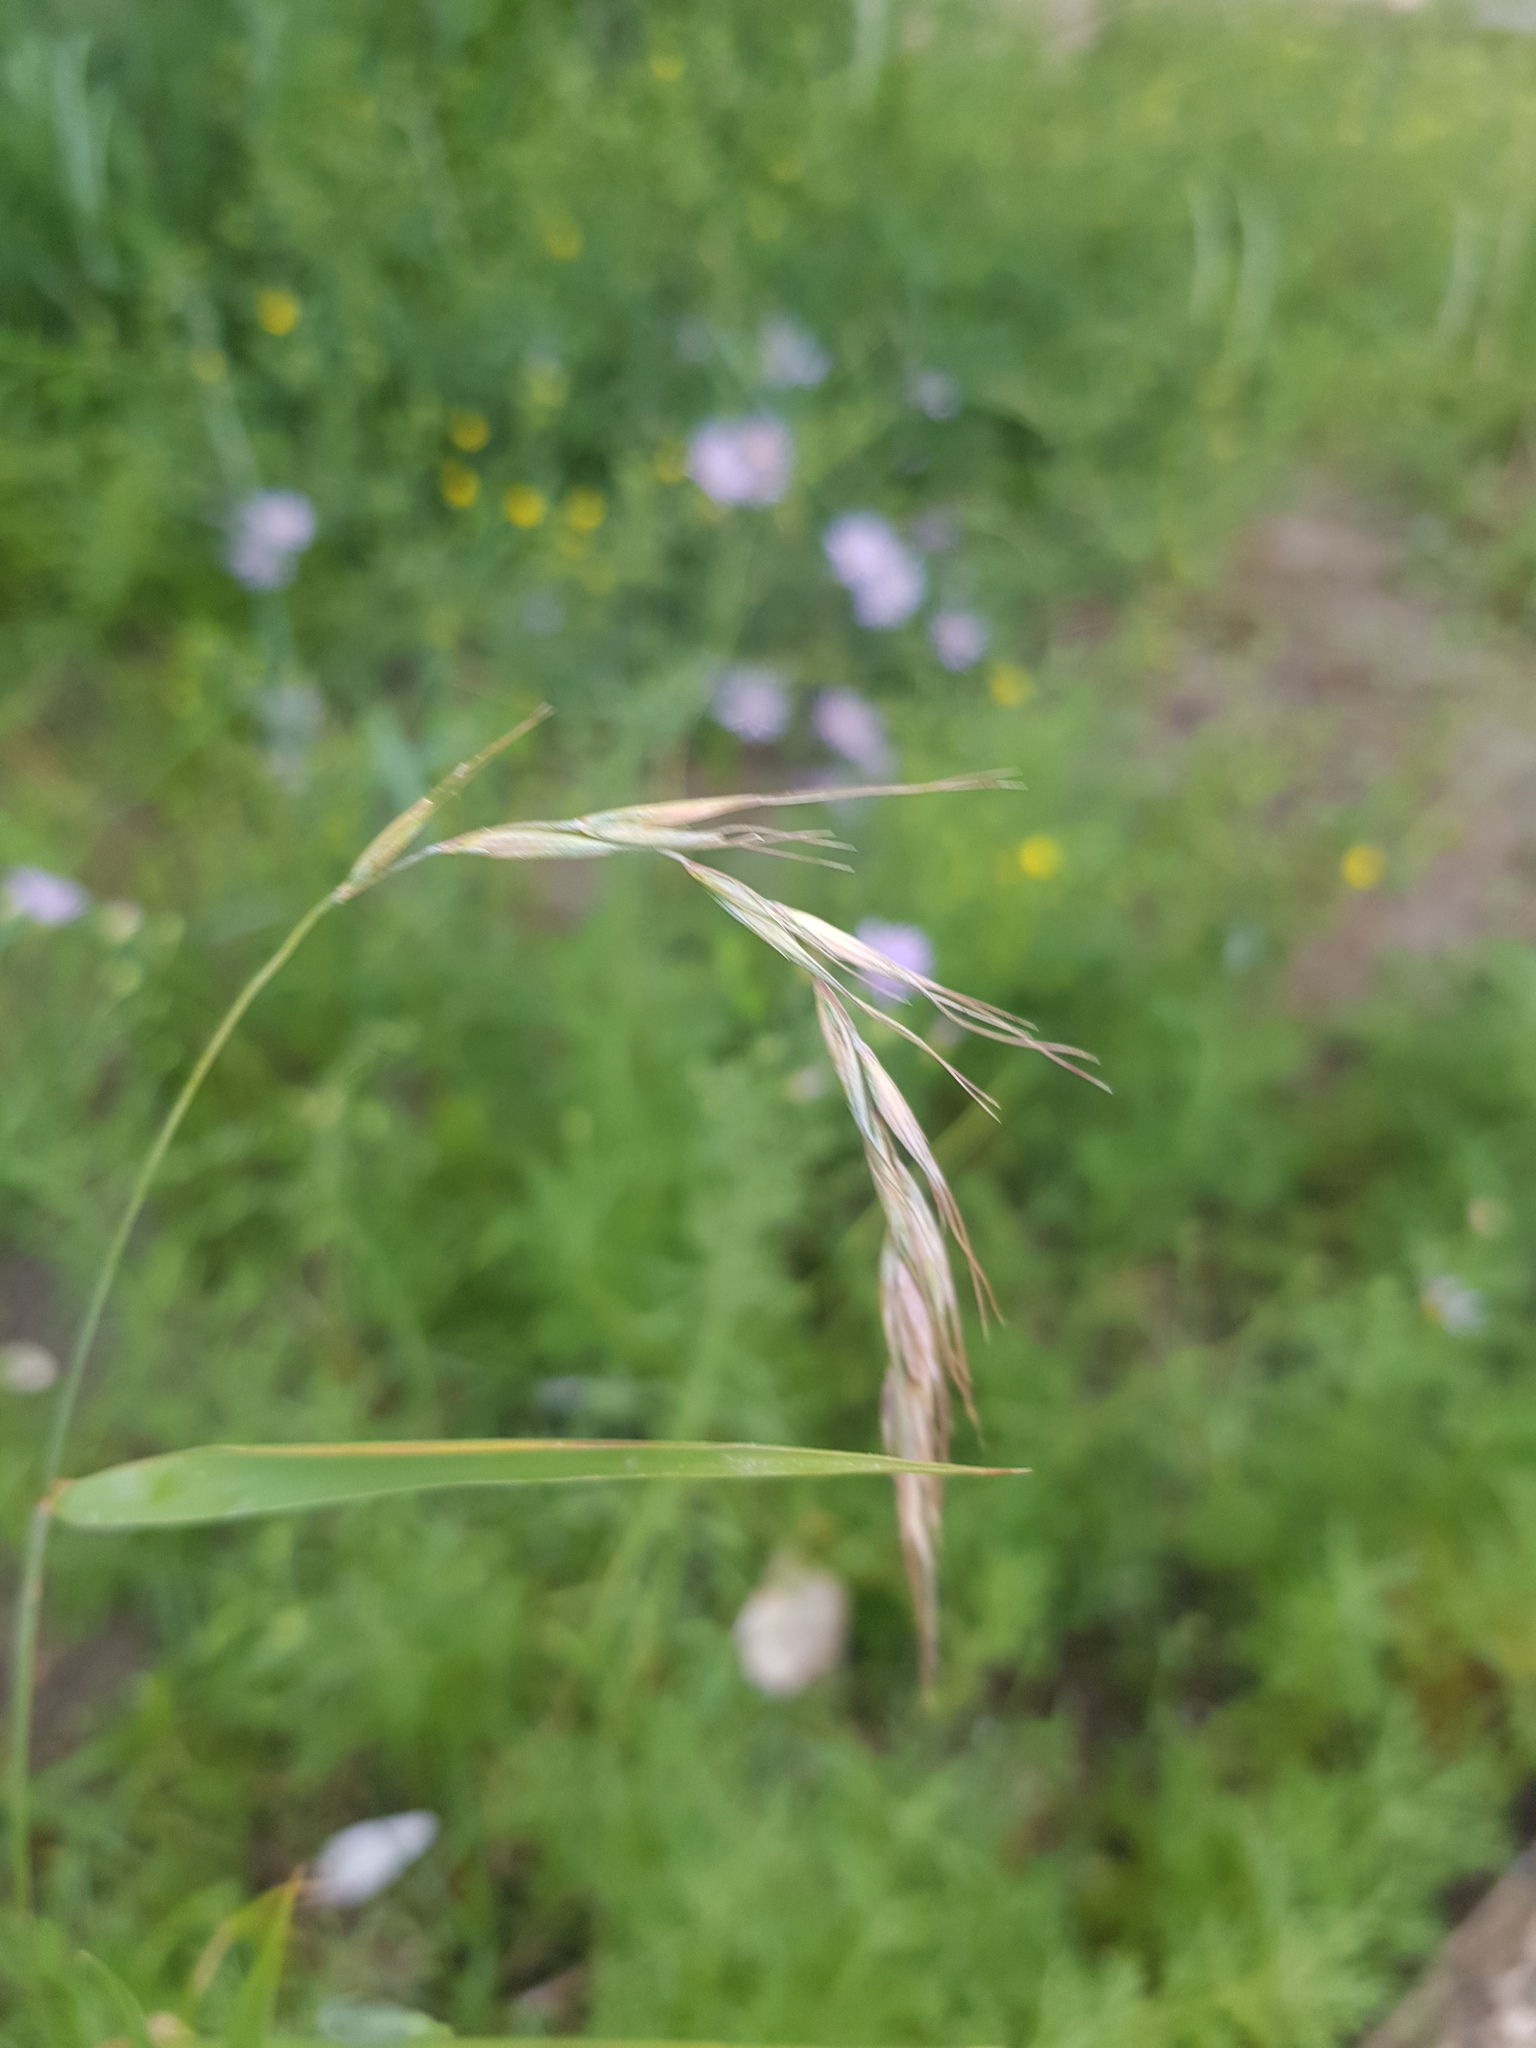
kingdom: Plantae
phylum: Tracheophyta
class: Liliopsida
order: Poales
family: Poaceae
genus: Elymus
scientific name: Elymus sibiricus
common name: Siberian wildrye
